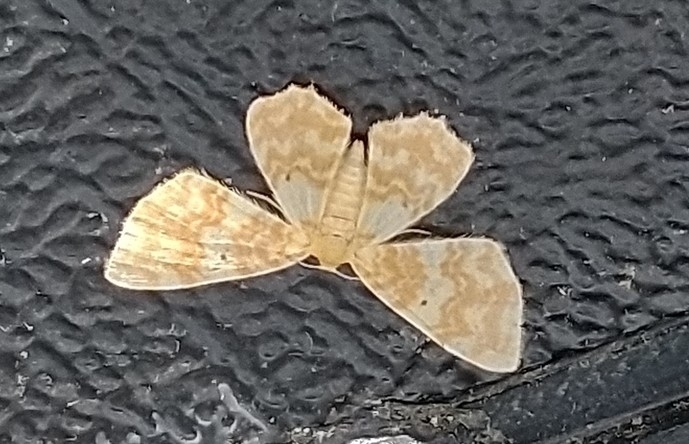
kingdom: Animalia
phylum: Arthropoda
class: Insecta
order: Lepidoptera
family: Geometridae
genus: Hydrelia
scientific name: Hydrelia flammeolaria
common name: Small yellow wave
